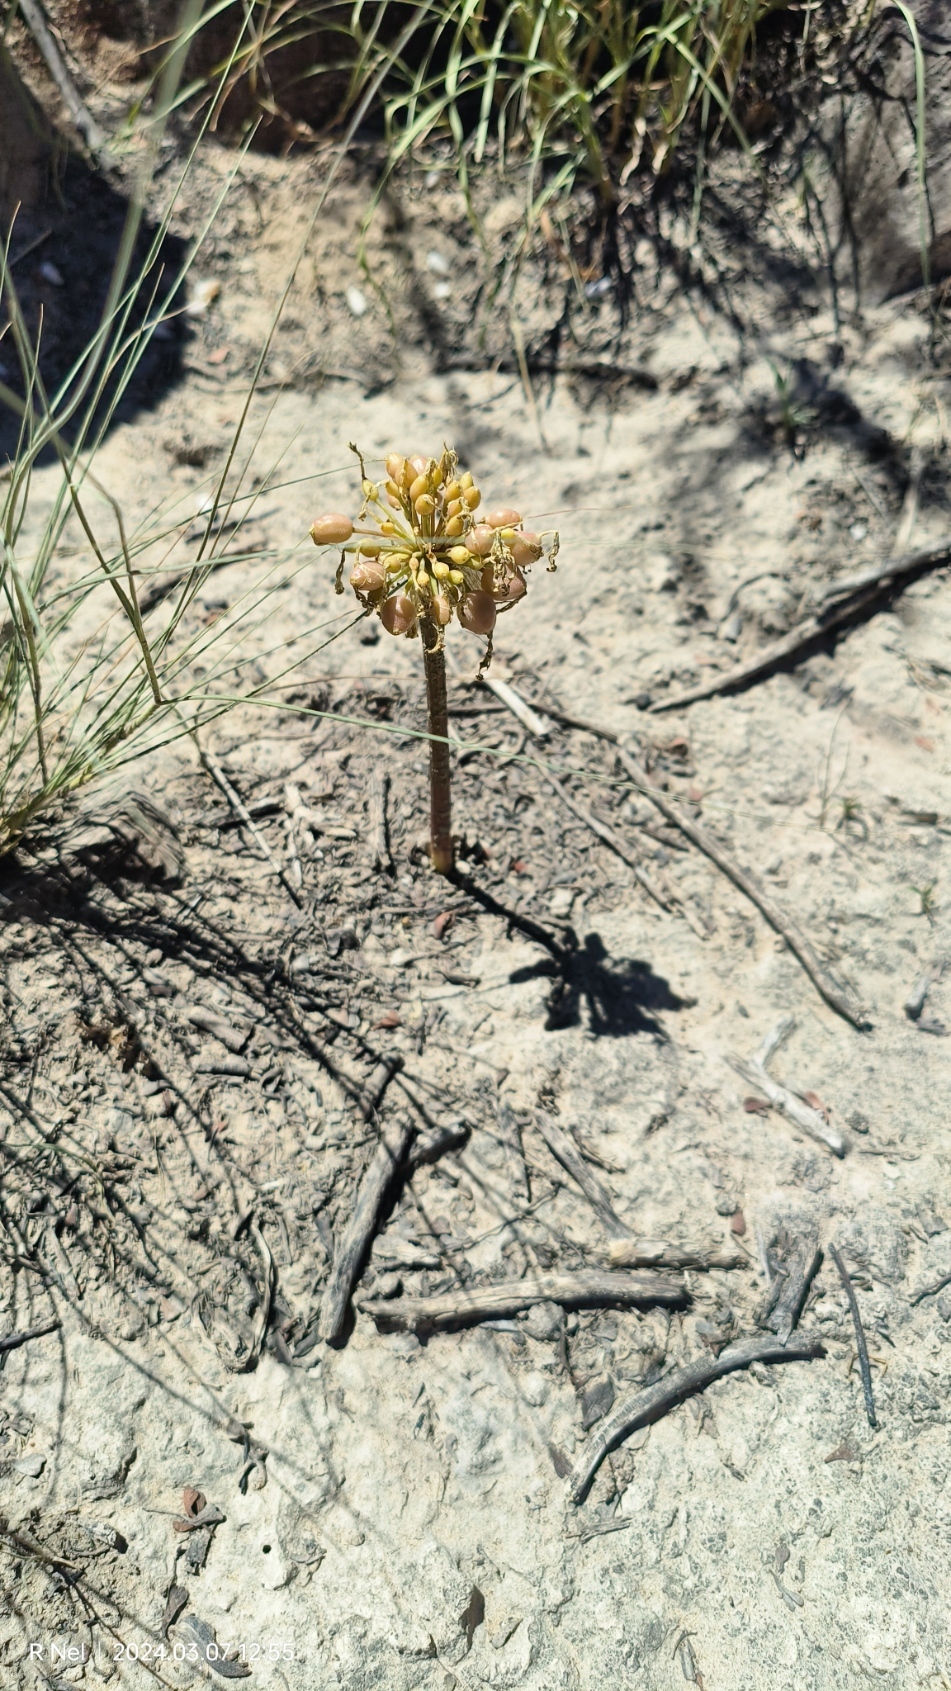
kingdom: Plantae
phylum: Tracheophyta
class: Liliopsida
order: Asparagales
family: Amaryllidaceae
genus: Haemanthus
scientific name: Haemanthus humilis
